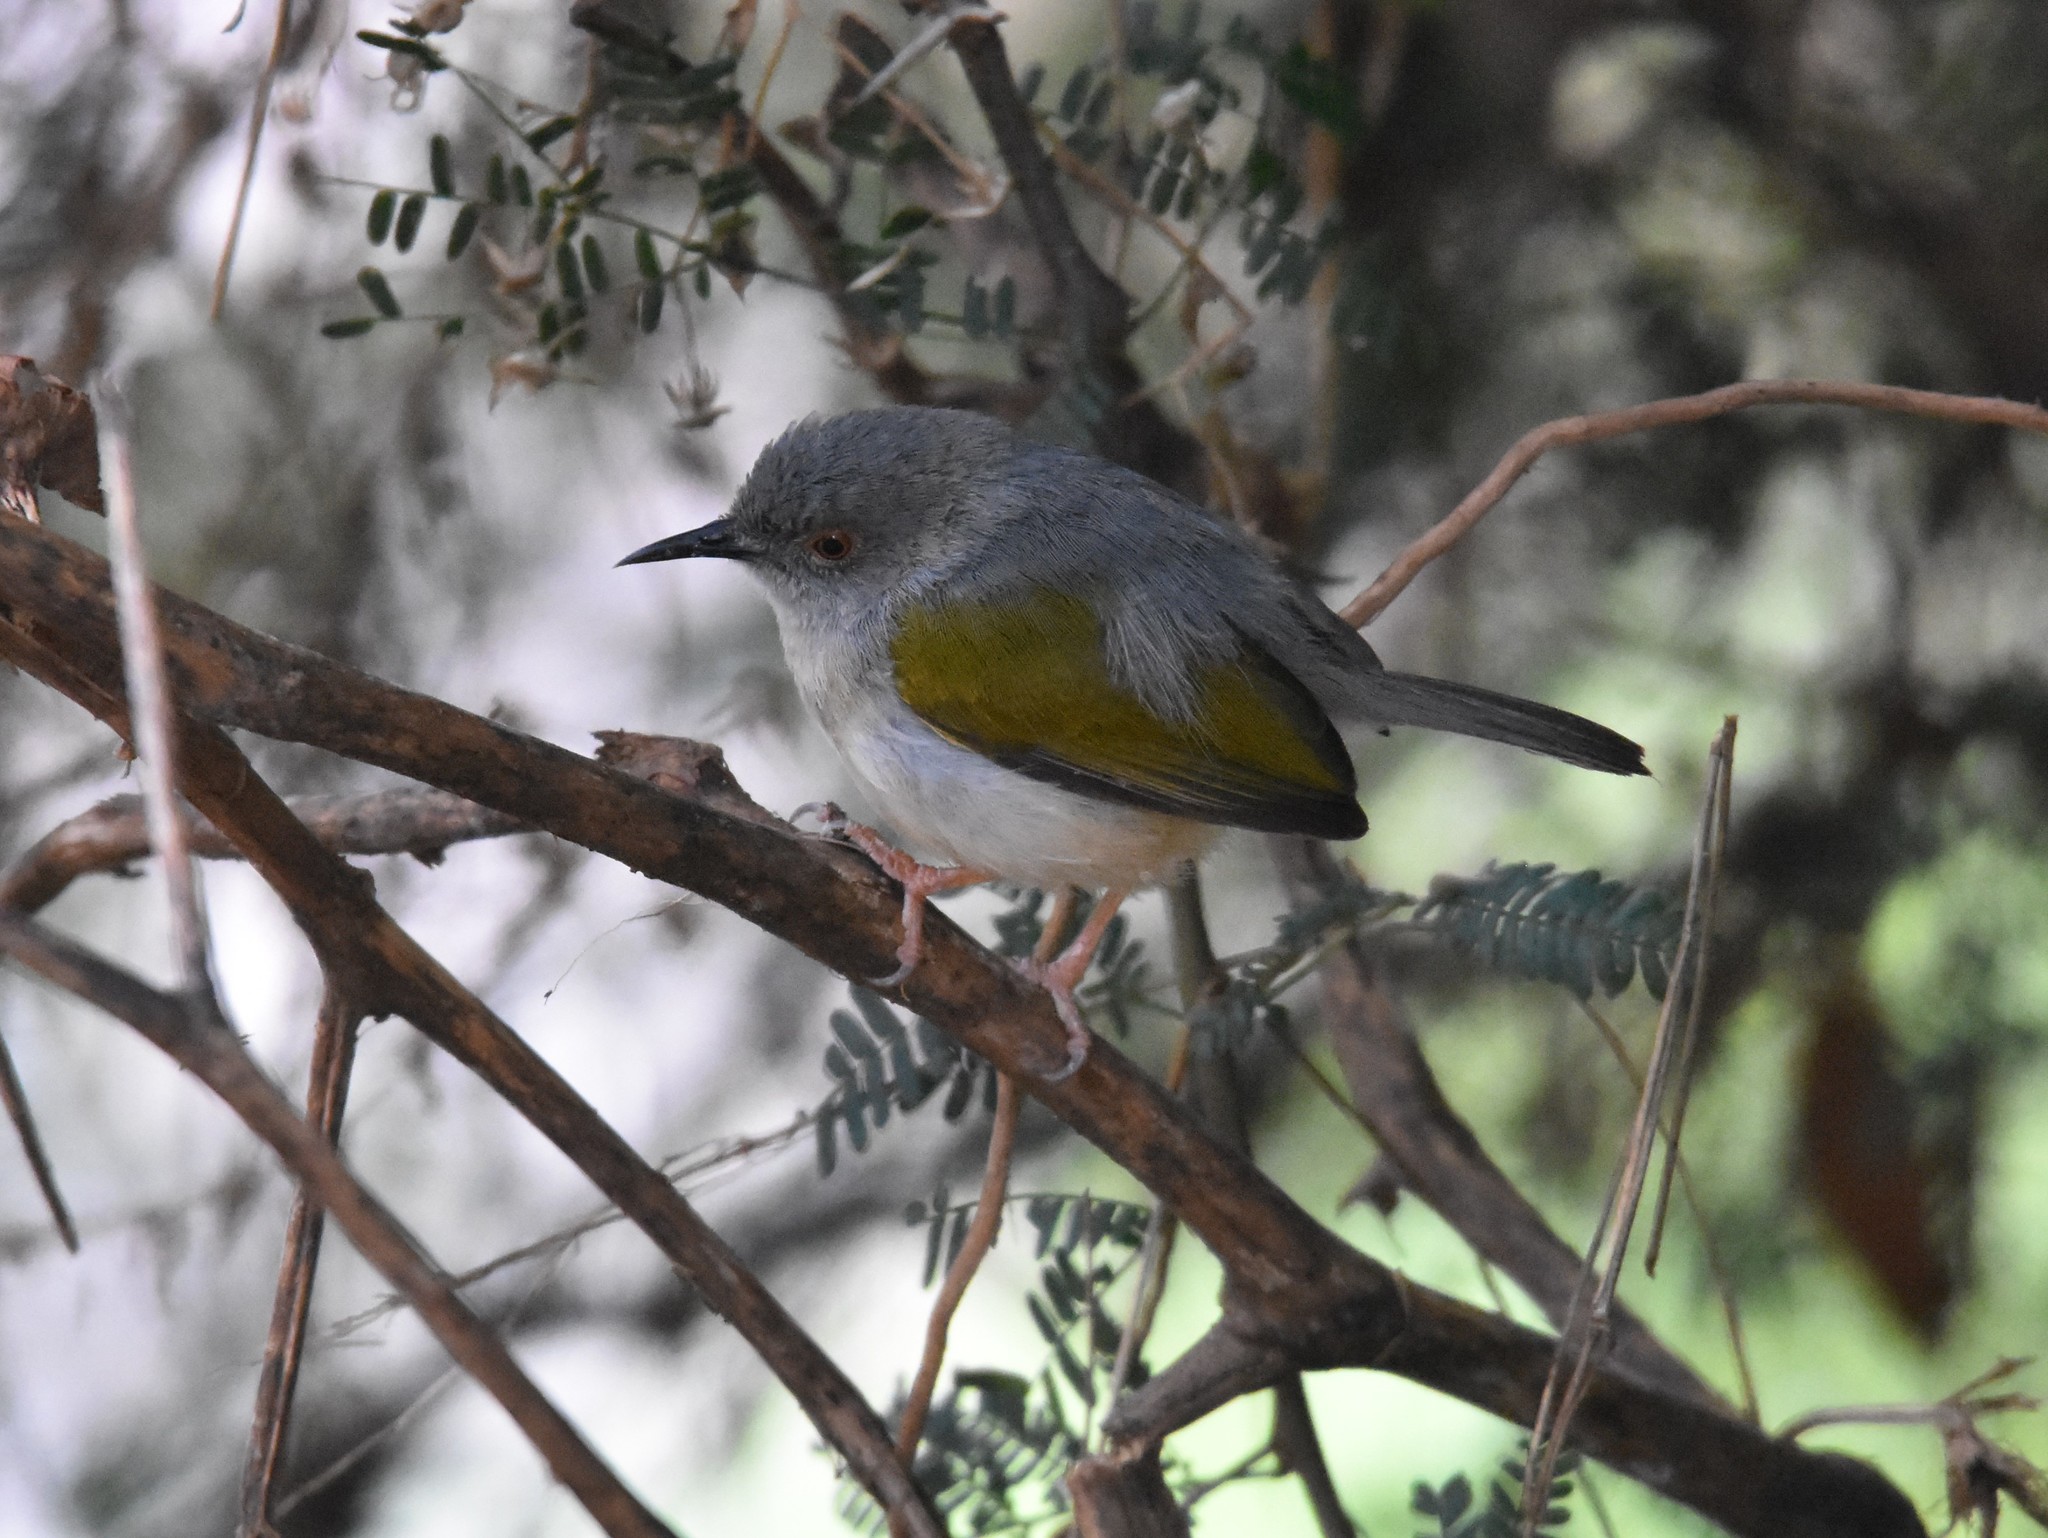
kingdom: Animalia
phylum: Chordata
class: Aves
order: Passeriformes
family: Cisticolidae
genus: Camaroptera
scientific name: Camaroptera brachyura
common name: Green-backed camaroptera
